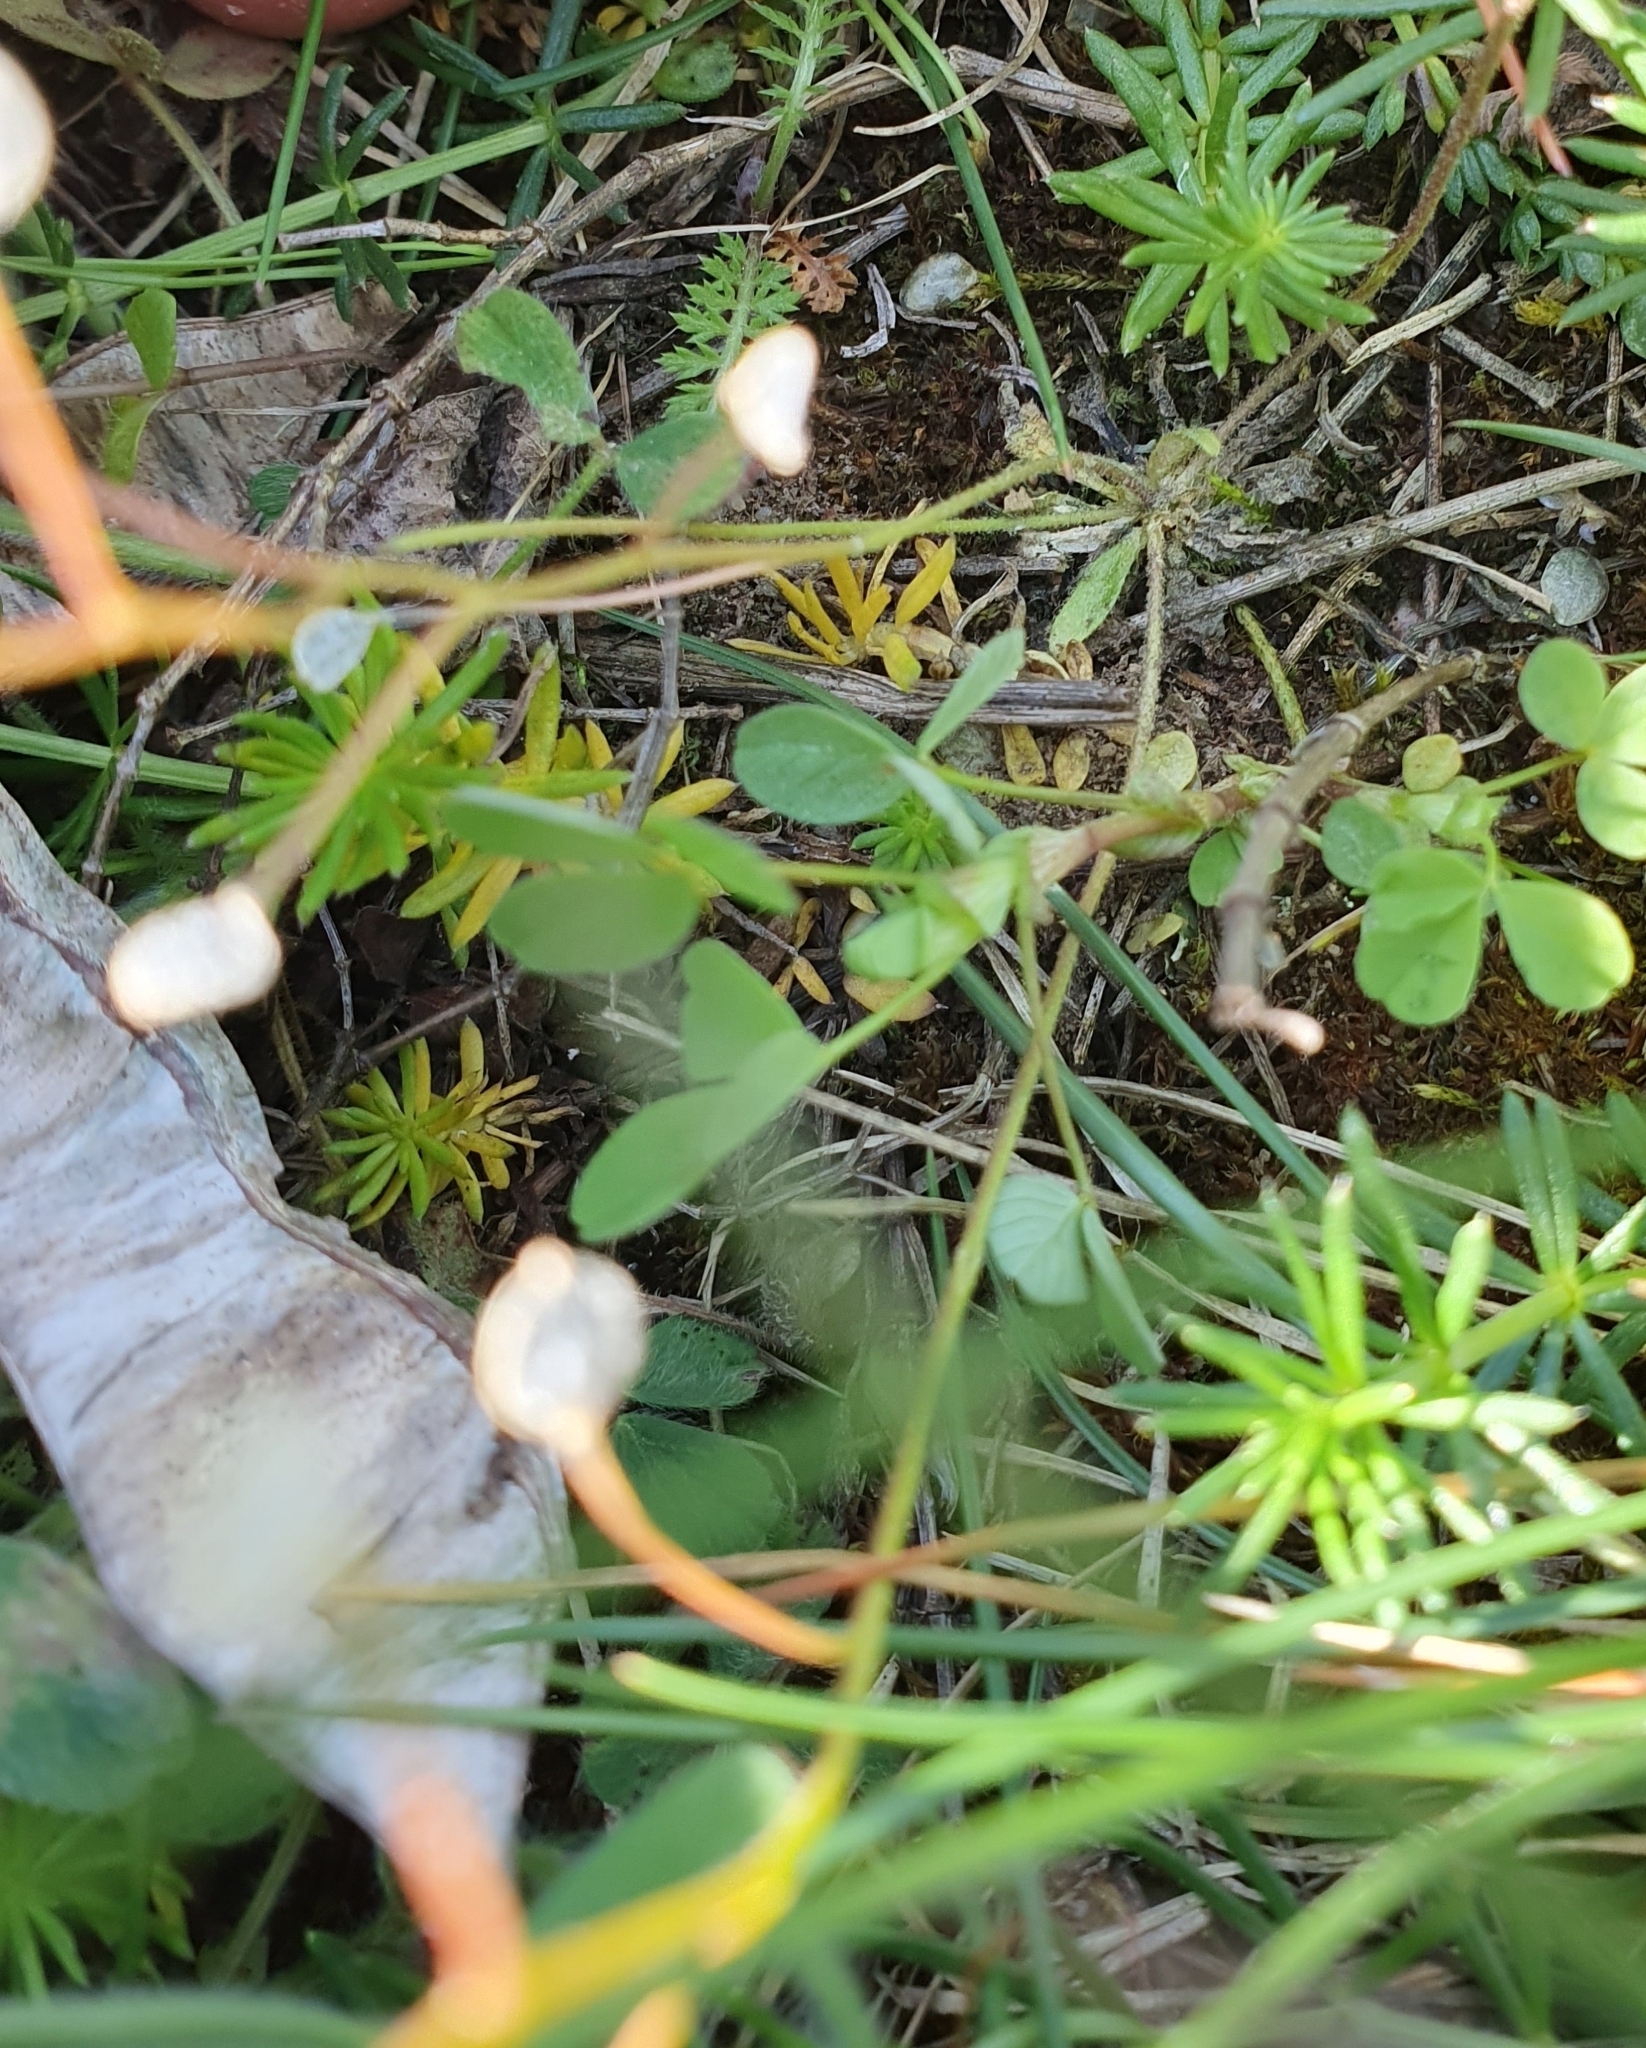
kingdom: Plantae
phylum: Tracheophyta
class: Magnoliopsida
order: Brassicales
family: Brassicaceae
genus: Draba
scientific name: Draba verna
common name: Spring draba
